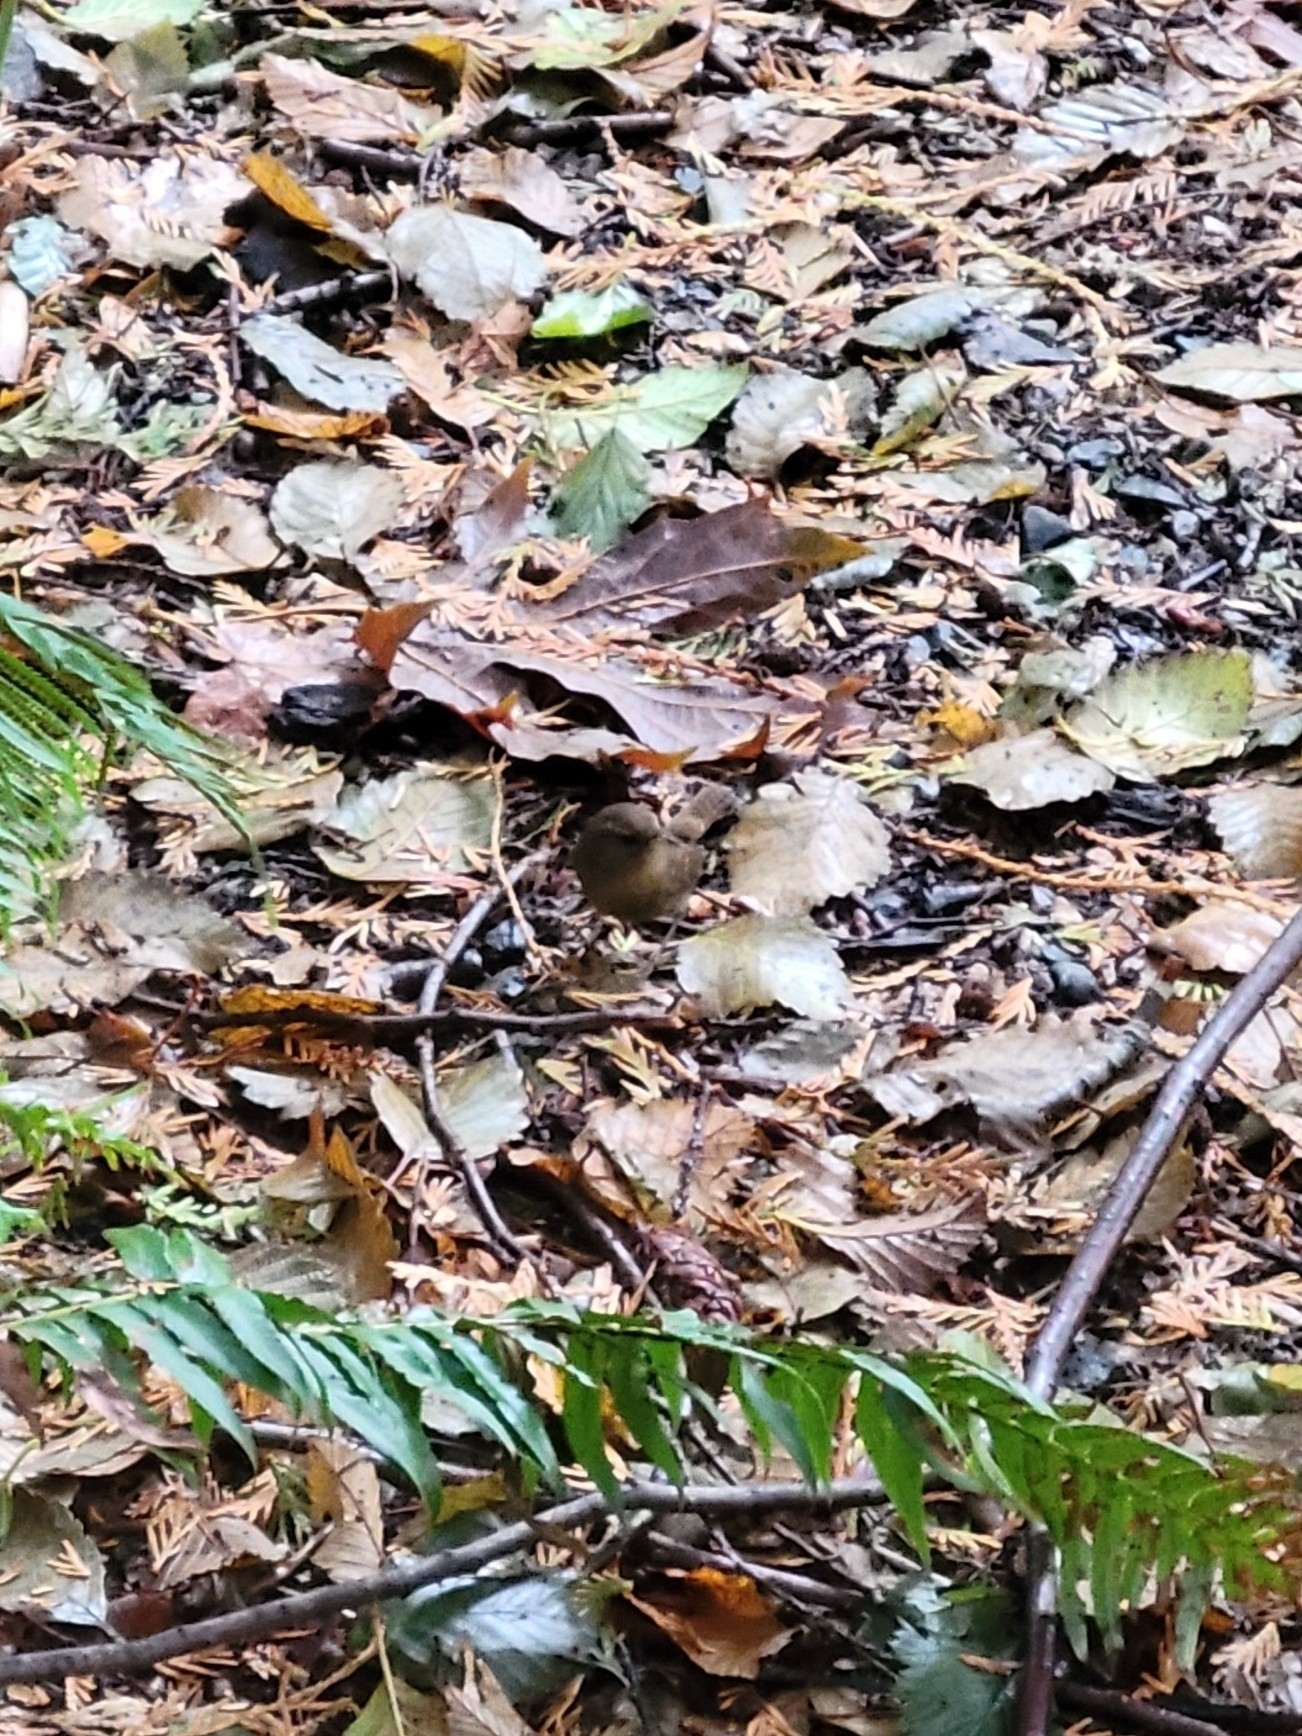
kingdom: Animalia
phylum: Chordata
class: Aves
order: Passeriformes
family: Troglodytidae
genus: Troglodytes
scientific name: Troglodytes pacificus
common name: Pacific wren
